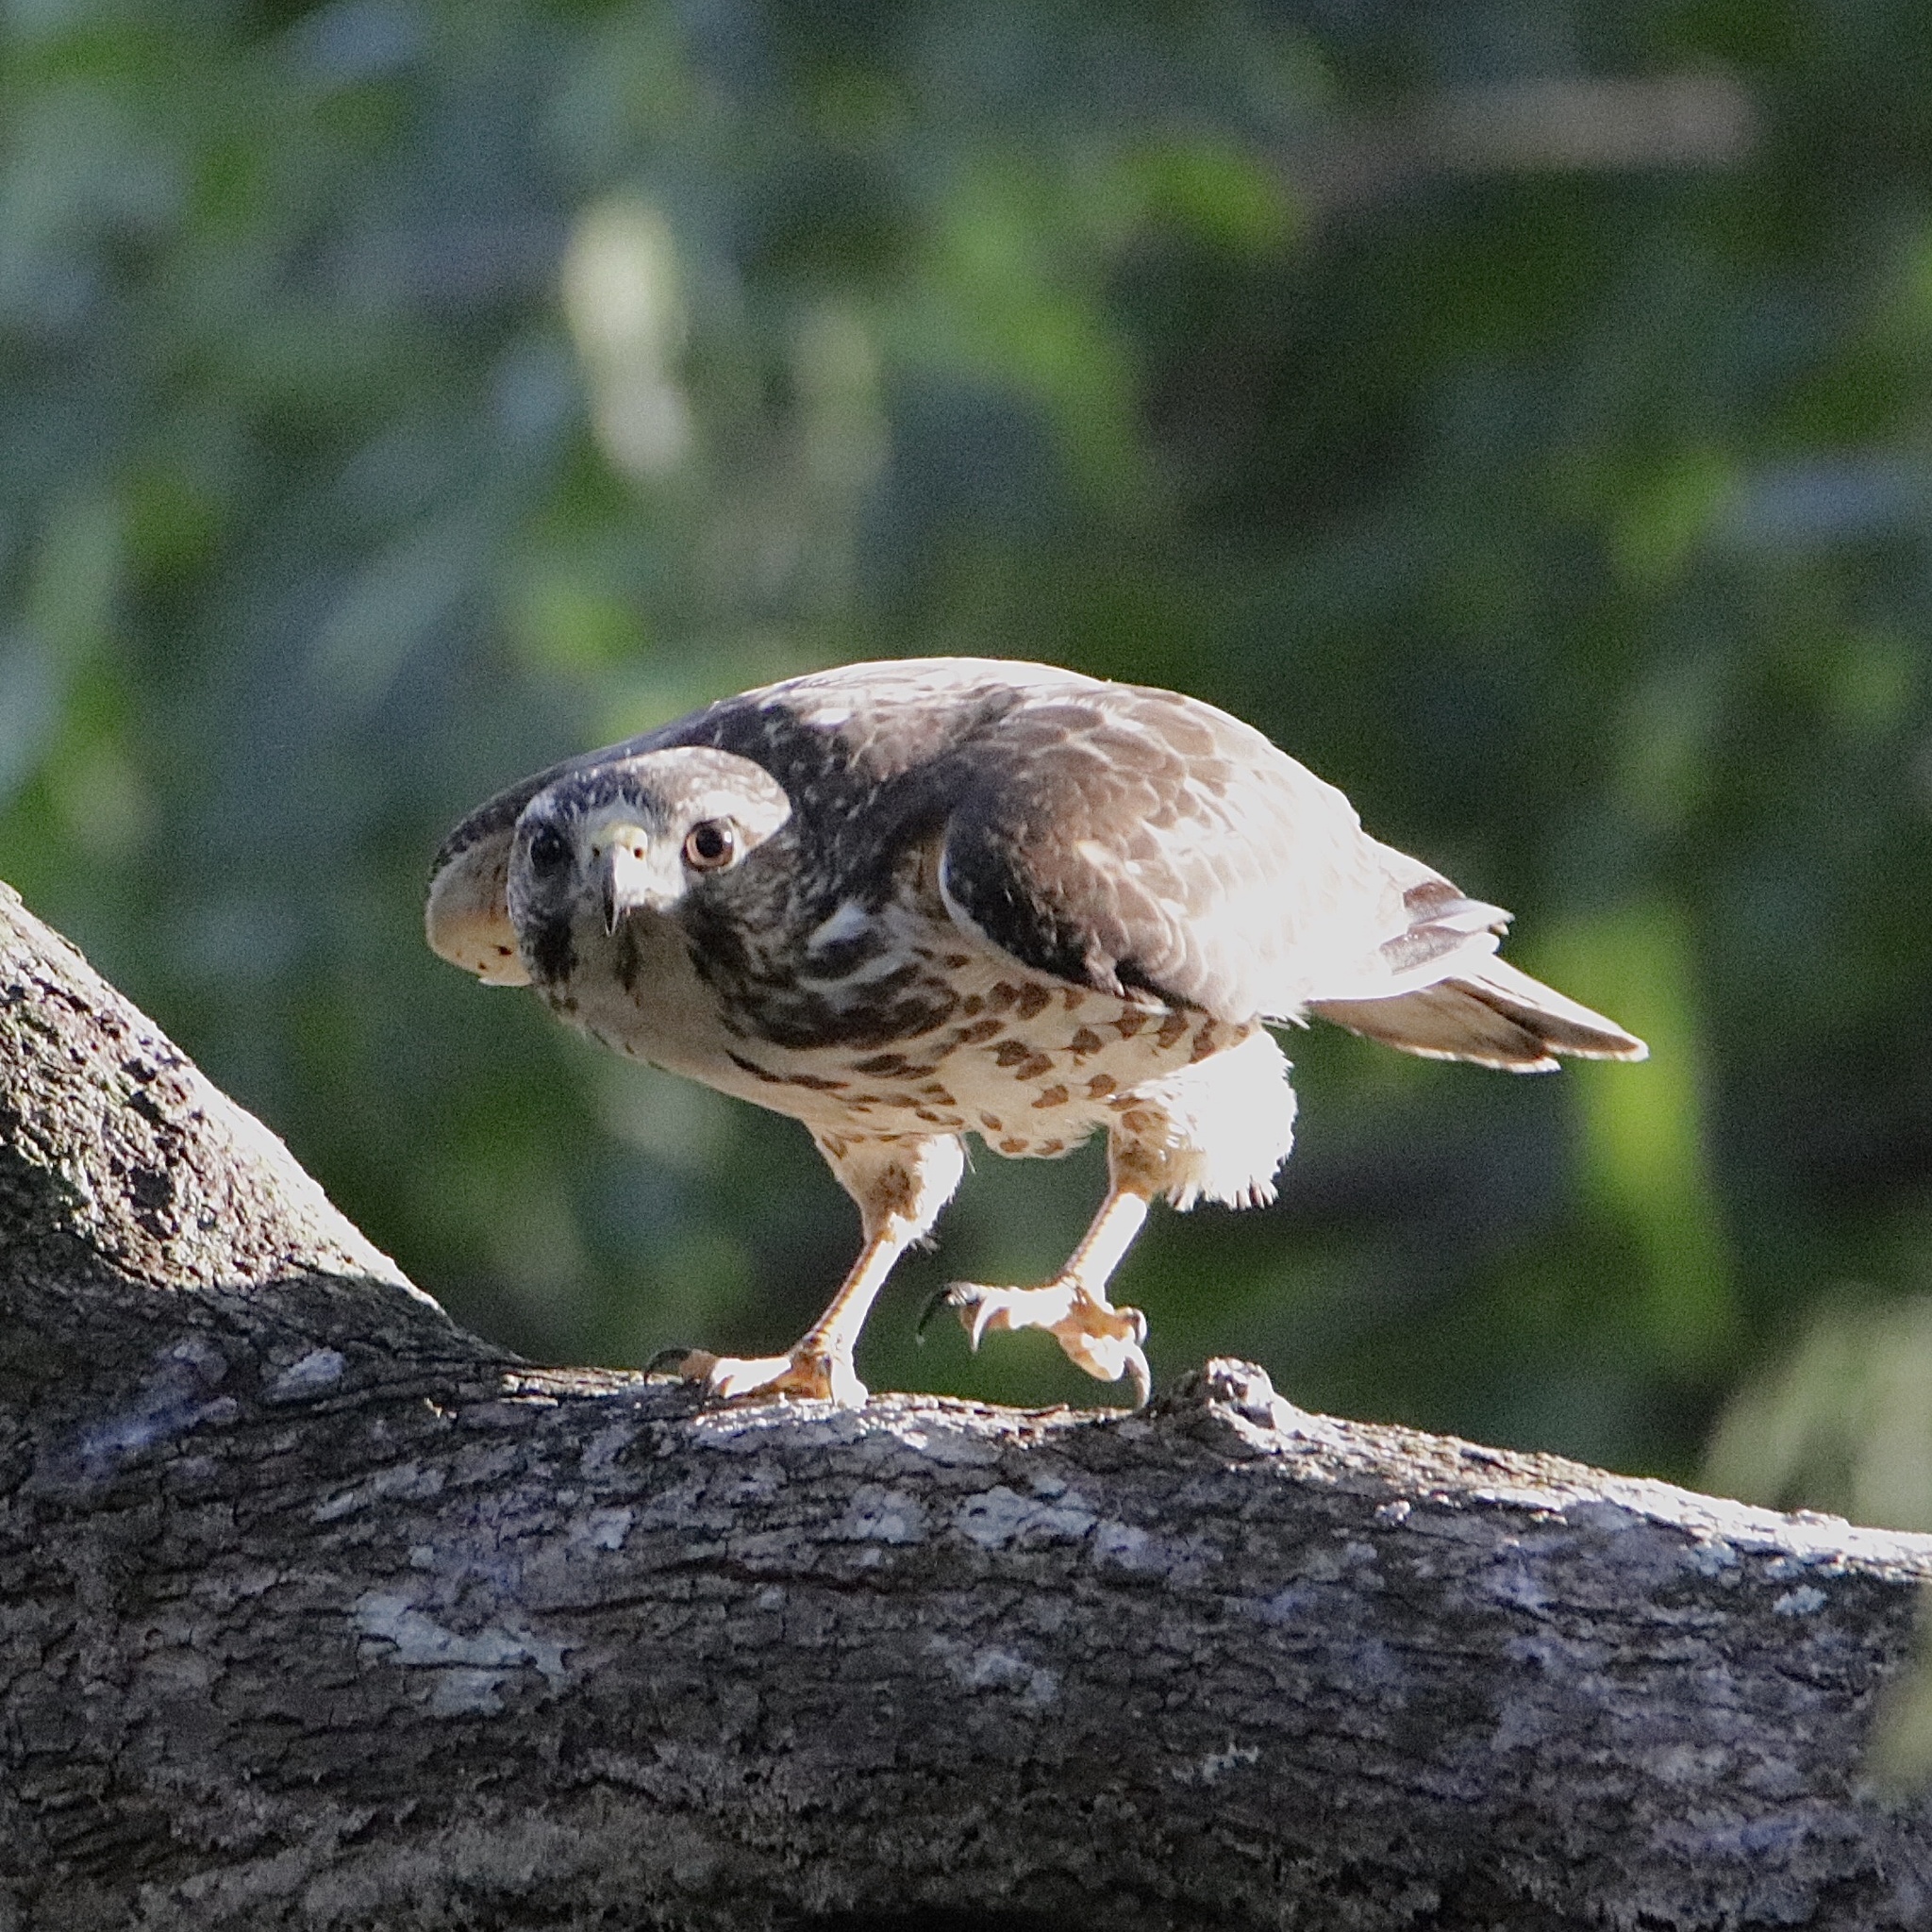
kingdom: Animalia
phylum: Chordata
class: Aves
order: Accipitriformes
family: Accipitridae
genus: Buteo
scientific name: Buteo platypterus
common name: Broad-winged hawk
